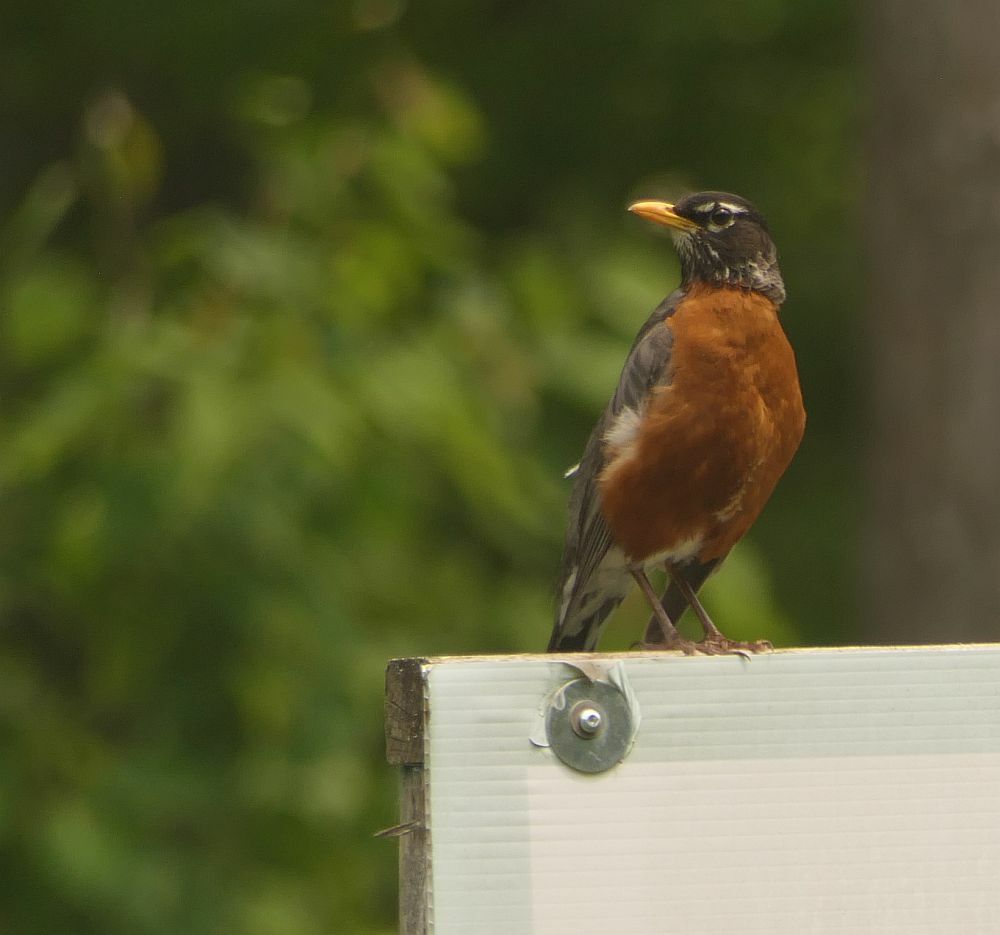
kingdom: Animalia
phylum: Chordata
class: Aves
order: Passeriformes
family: Turdidae
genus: Turdus
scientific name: Turdus migratorius
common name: American robin
